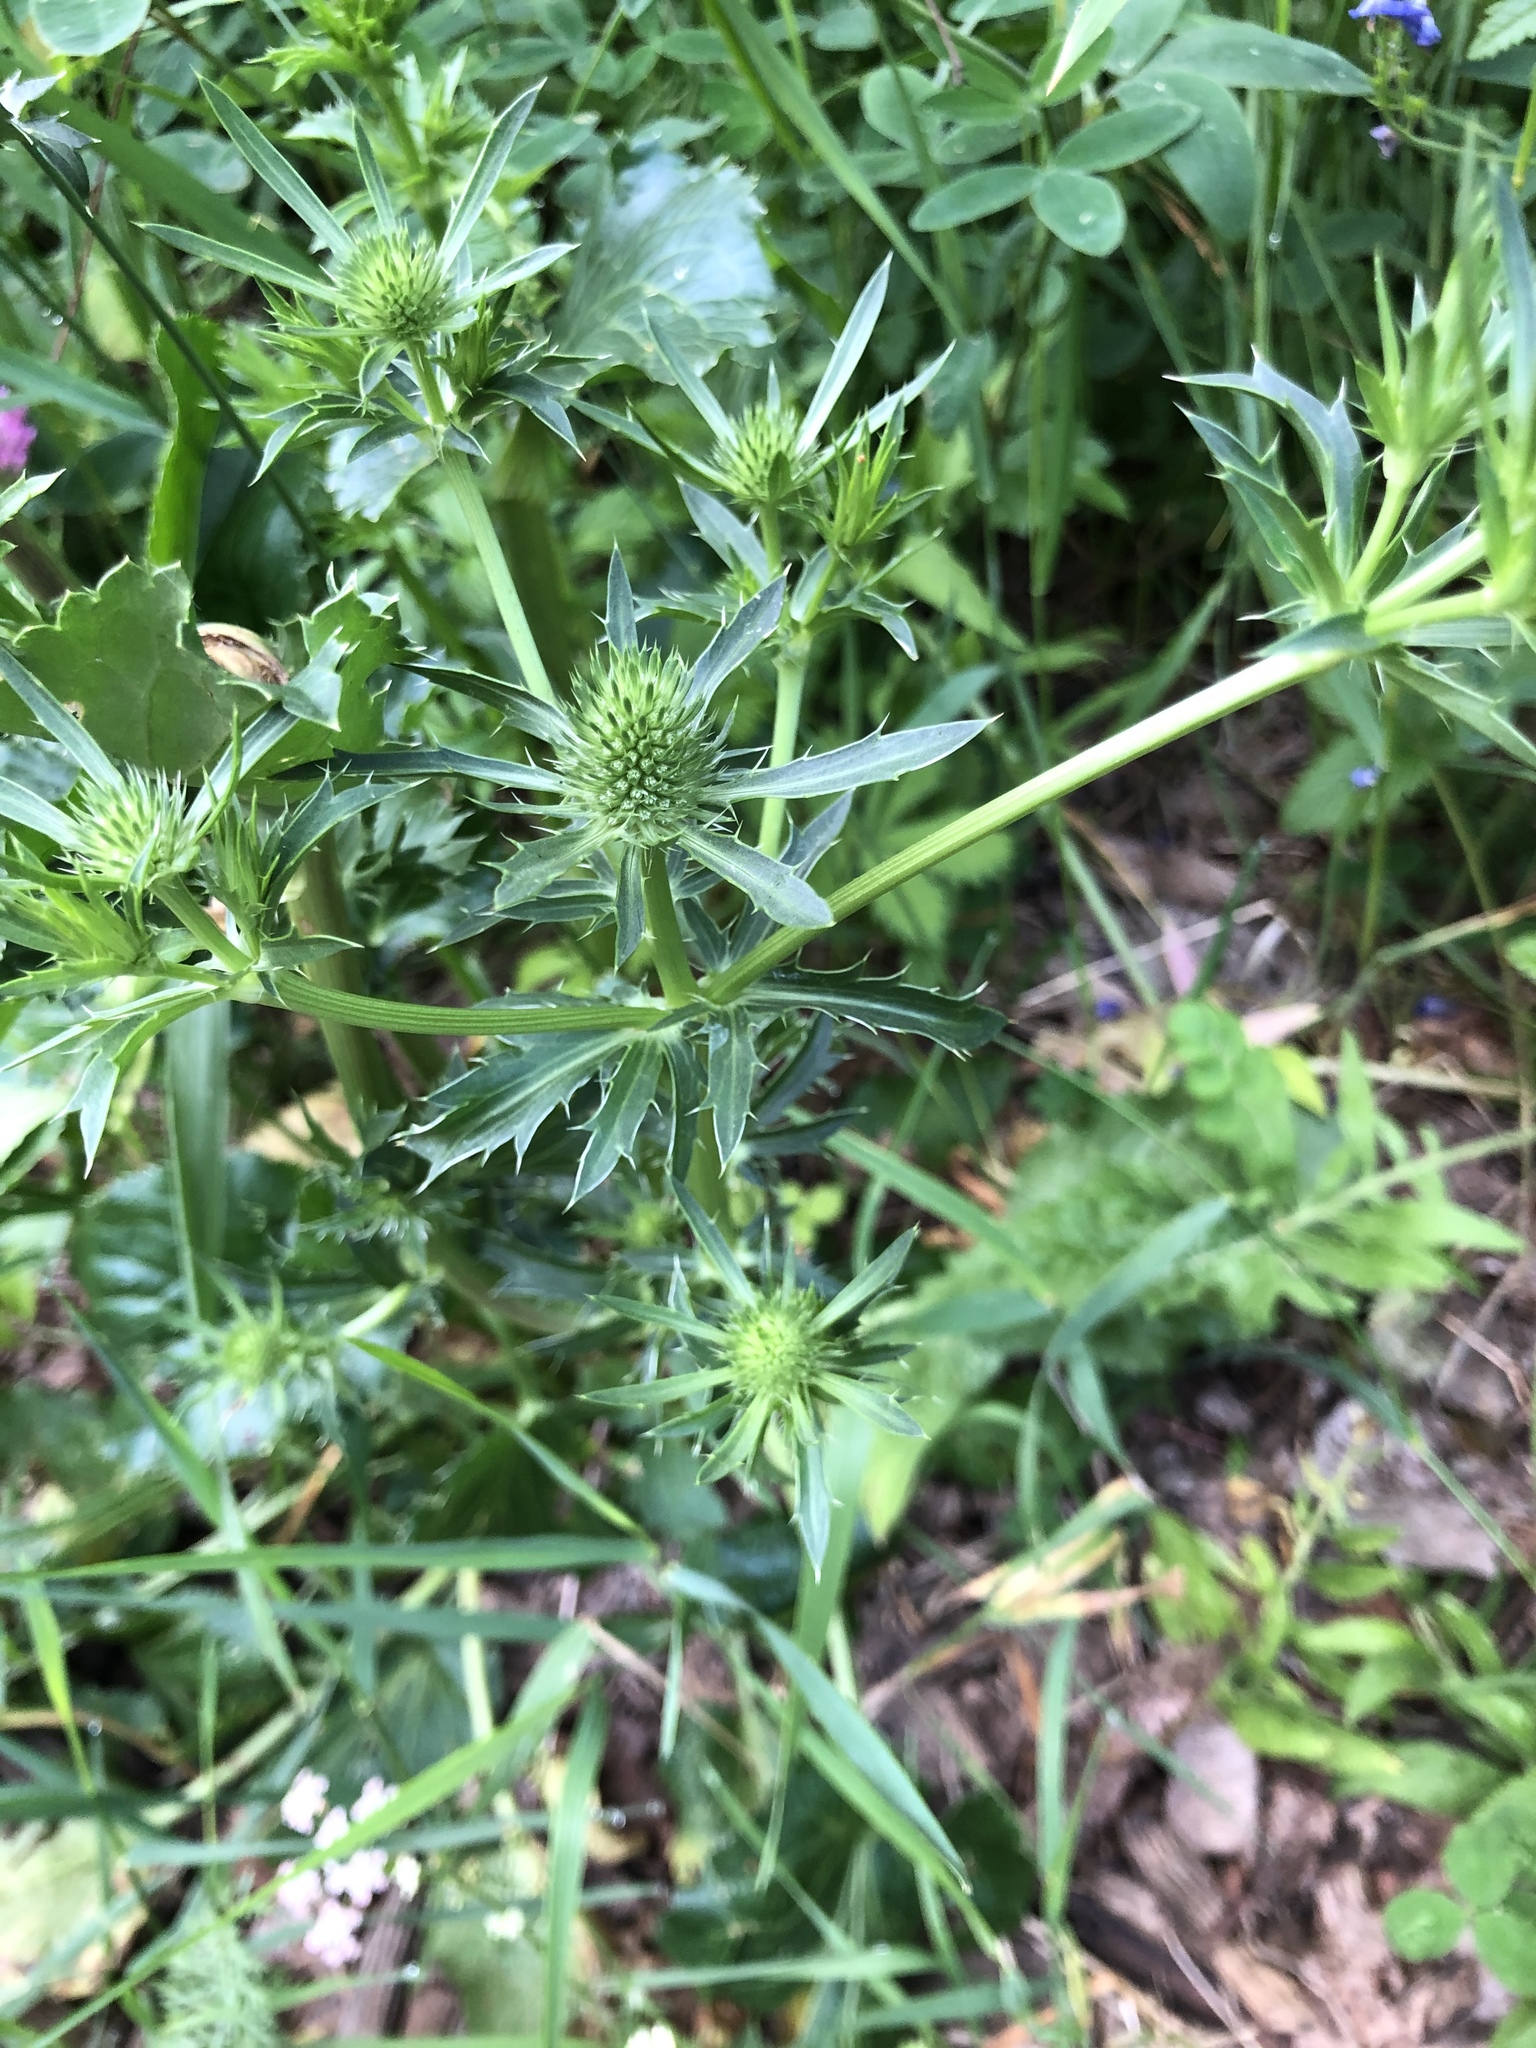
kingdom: Plantae
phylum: Tracheophyta
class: Magnoliopsida
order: Apiales
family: Apiaceae
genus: Eryngium
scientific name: Eryngium planum
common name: Blue eryngo
